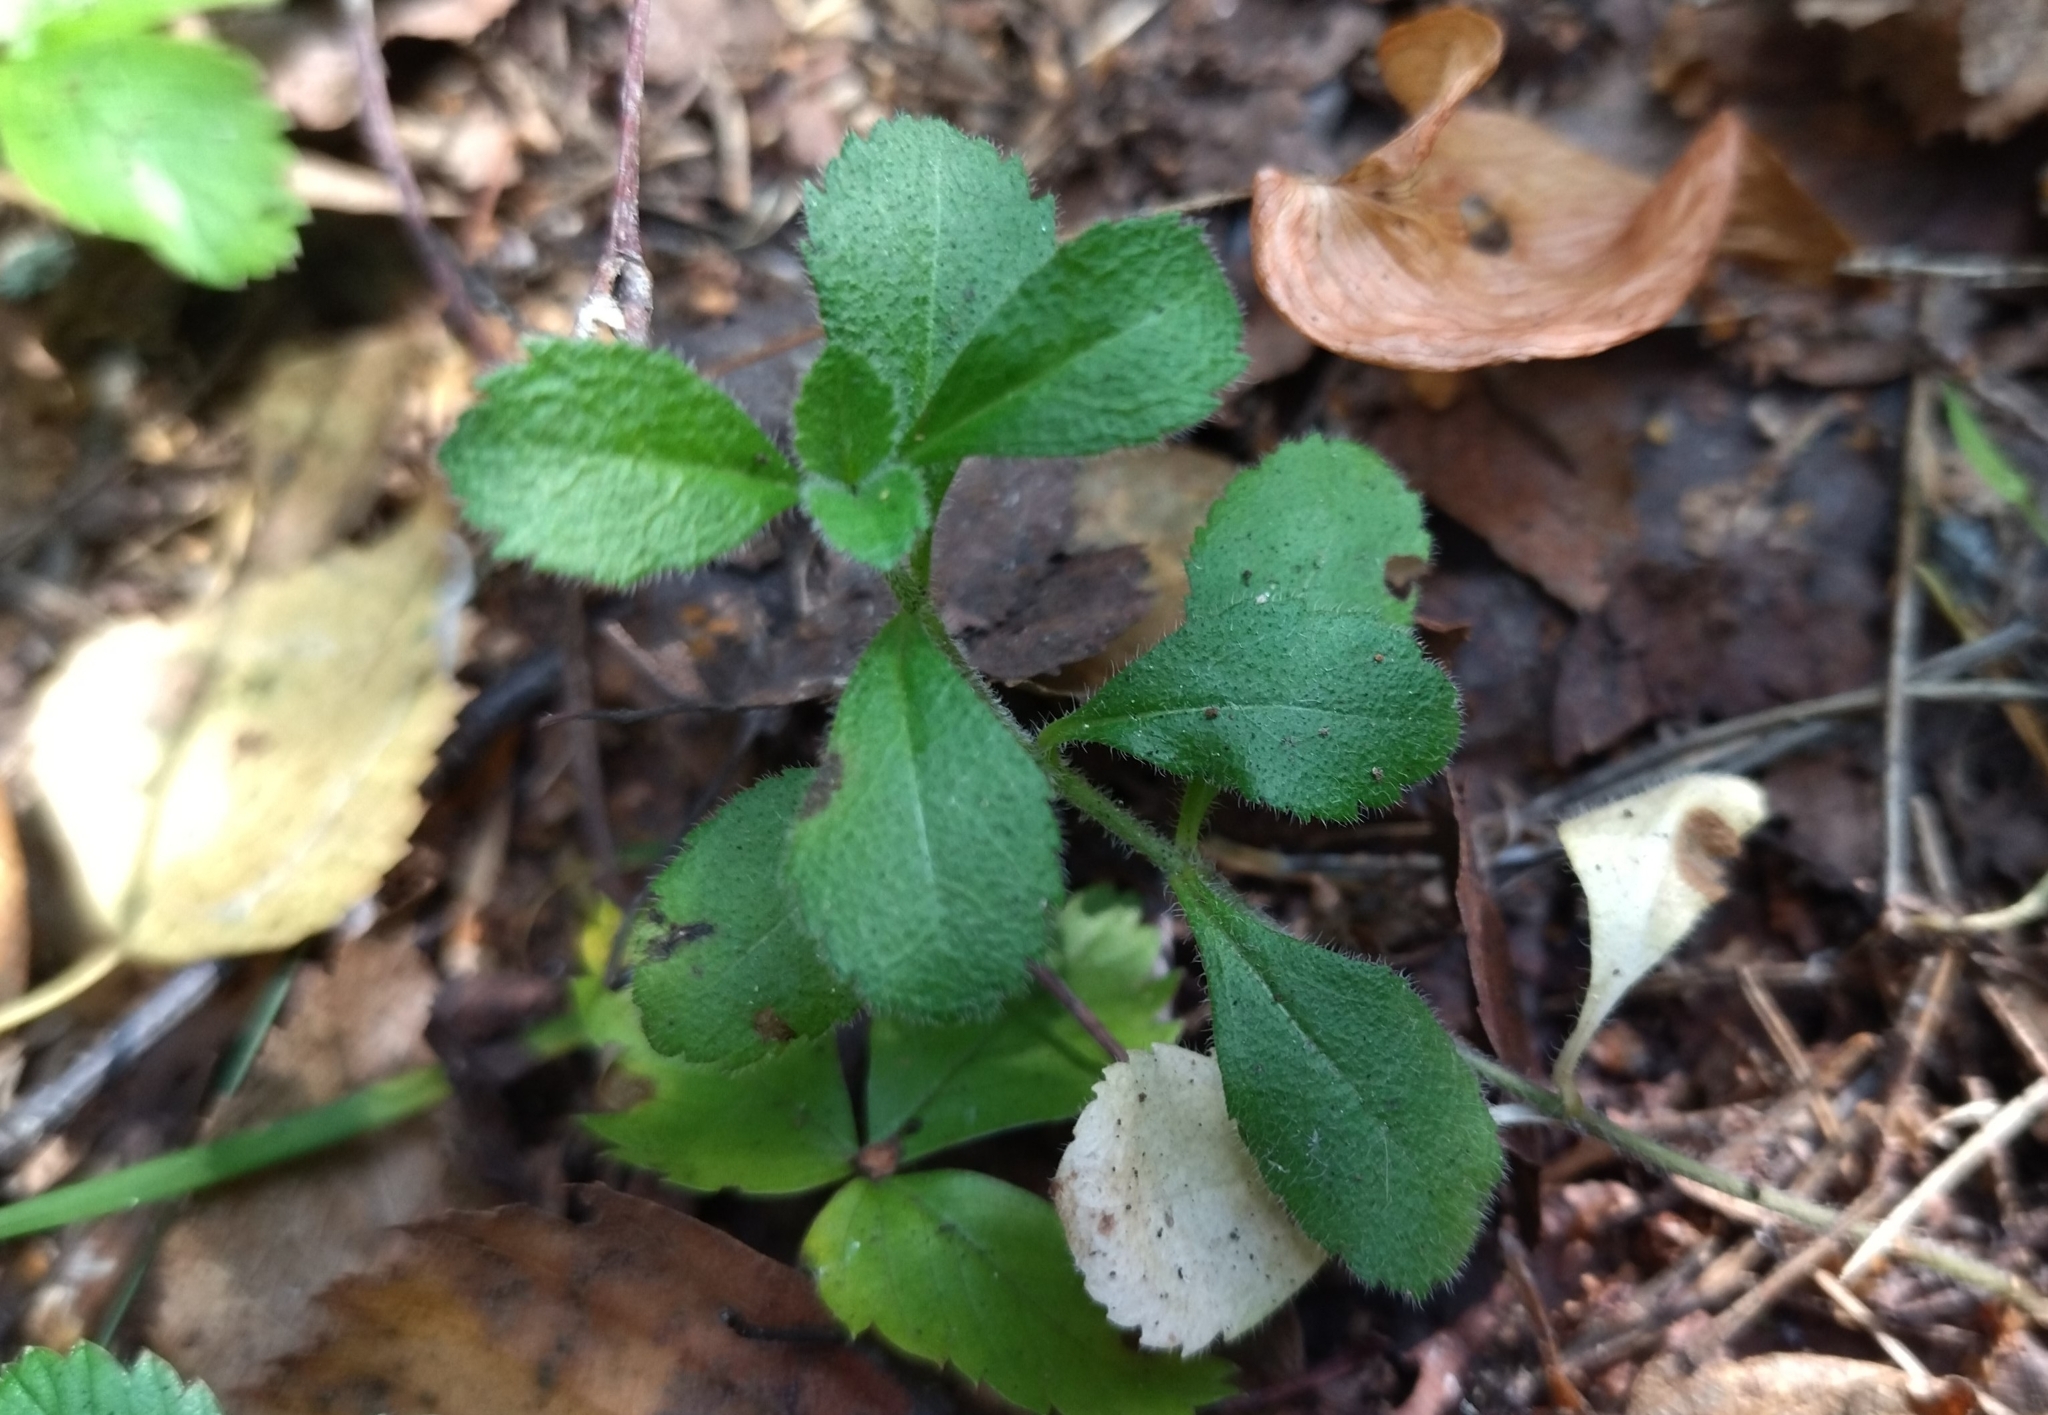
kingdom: Plantae
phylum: Tracheophyta
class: Magnoliopsida
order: Lamiales
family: Plantaginaceae
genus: Veronica
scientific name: Veronica officinalis
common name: Common speedwell
